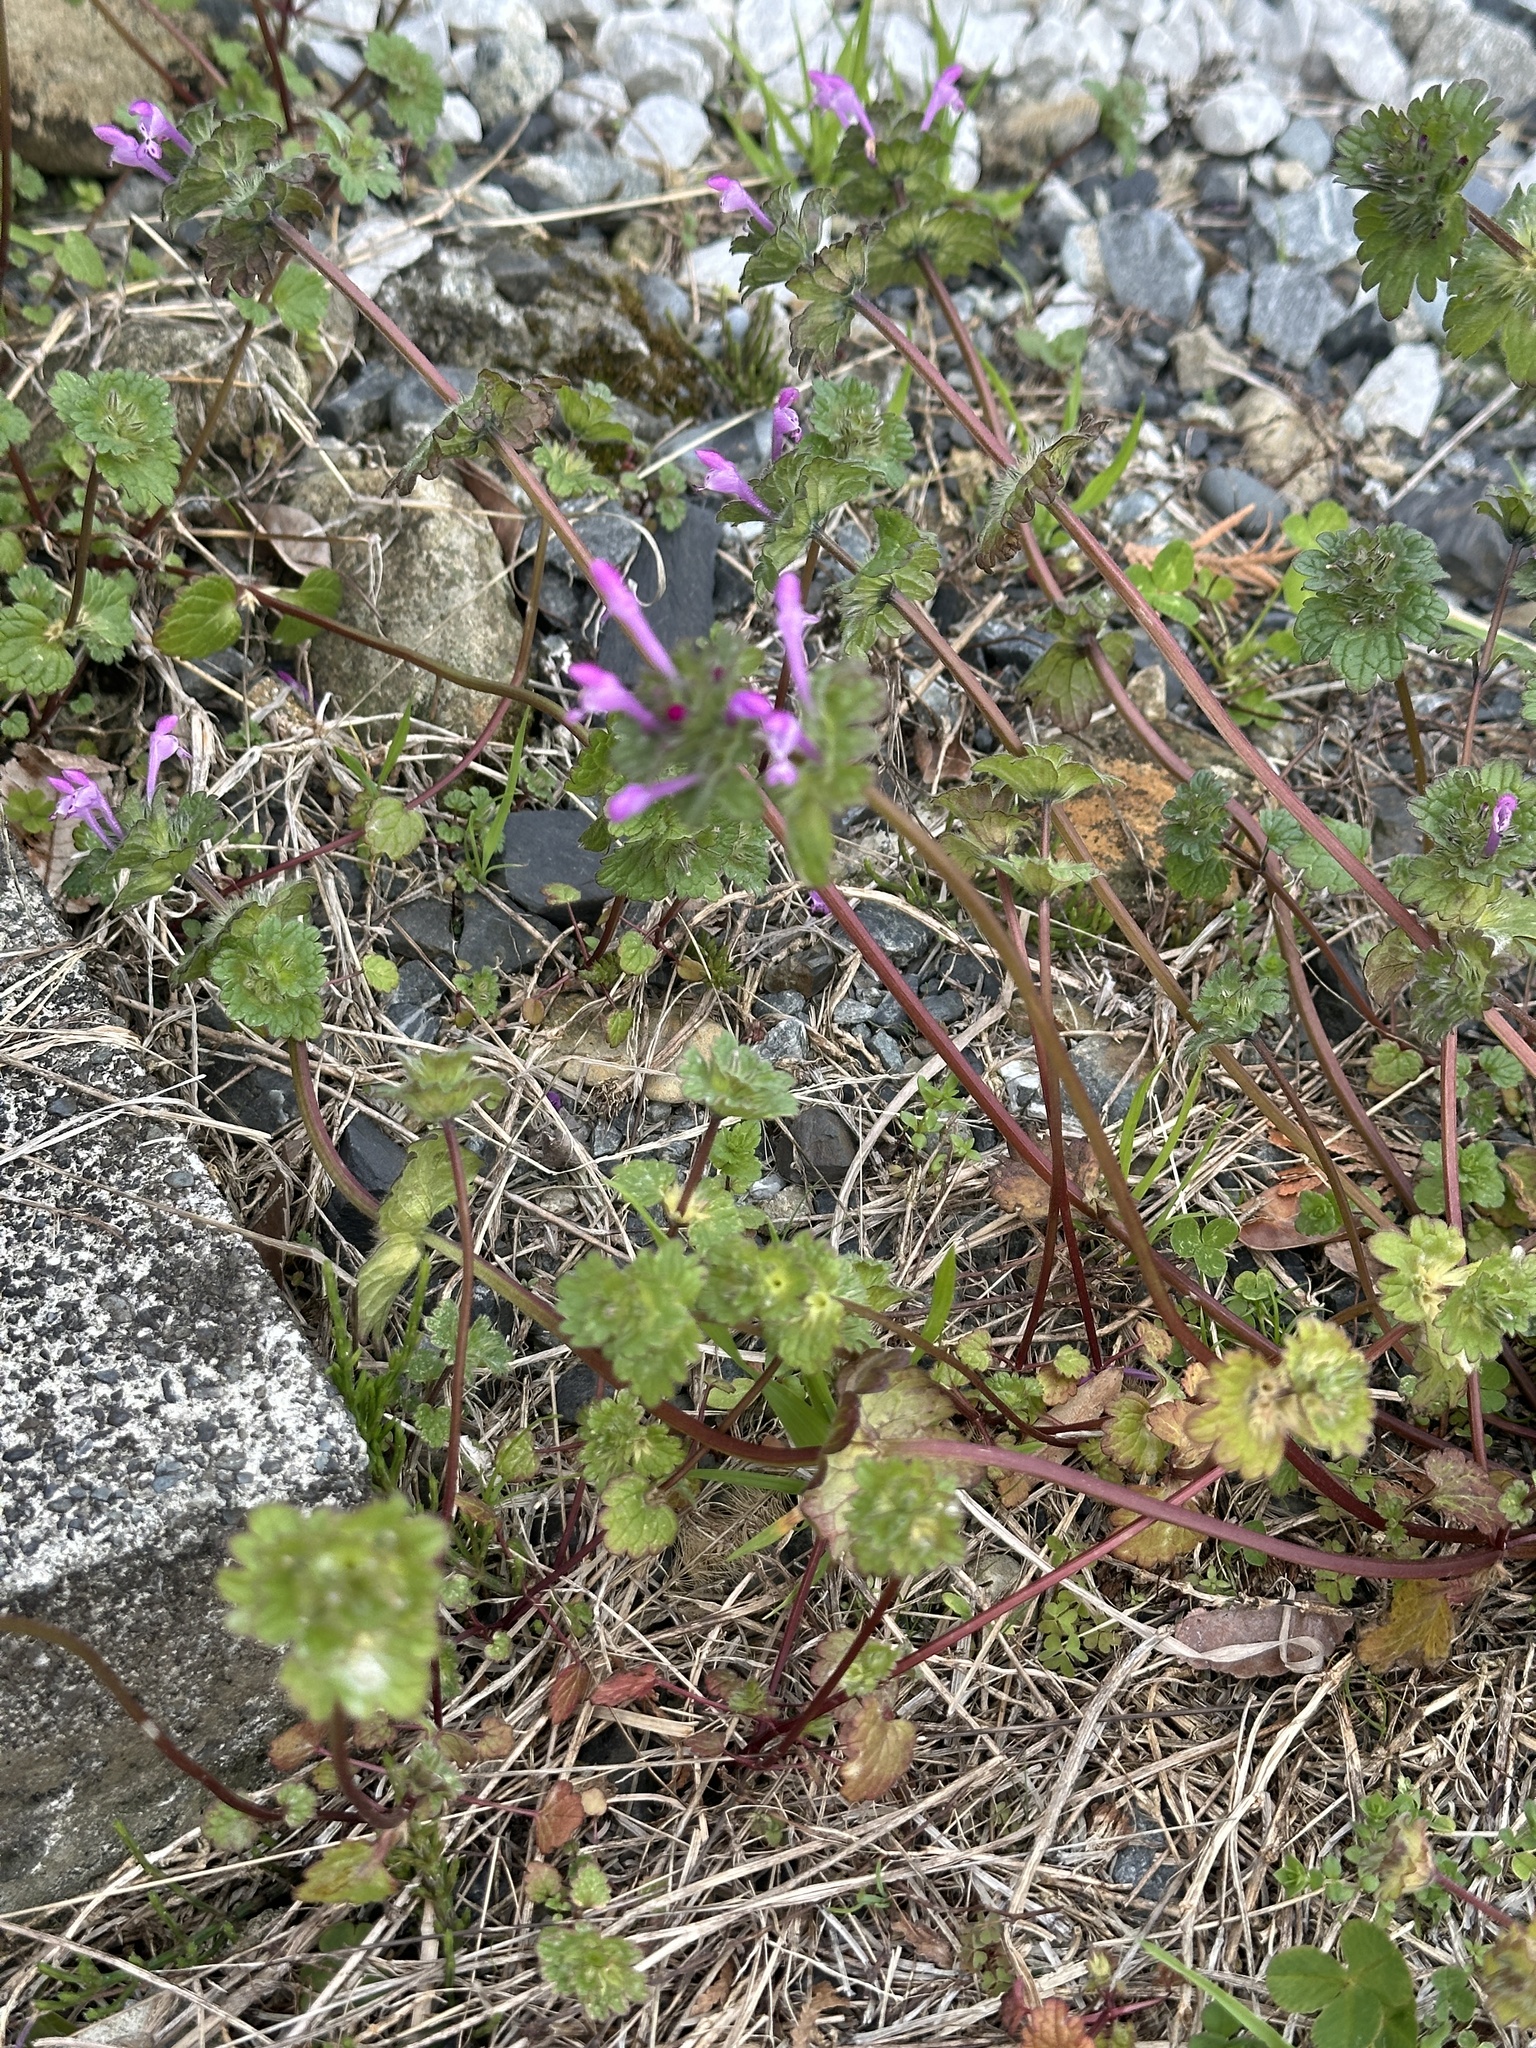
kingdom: Plantae
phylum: Tracheophyta
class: Magnoliopsida
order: Lamiales
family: Lamiaceae
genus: Lamium
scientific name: Lamium amplexicaule
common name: Henbit dead-nettle
